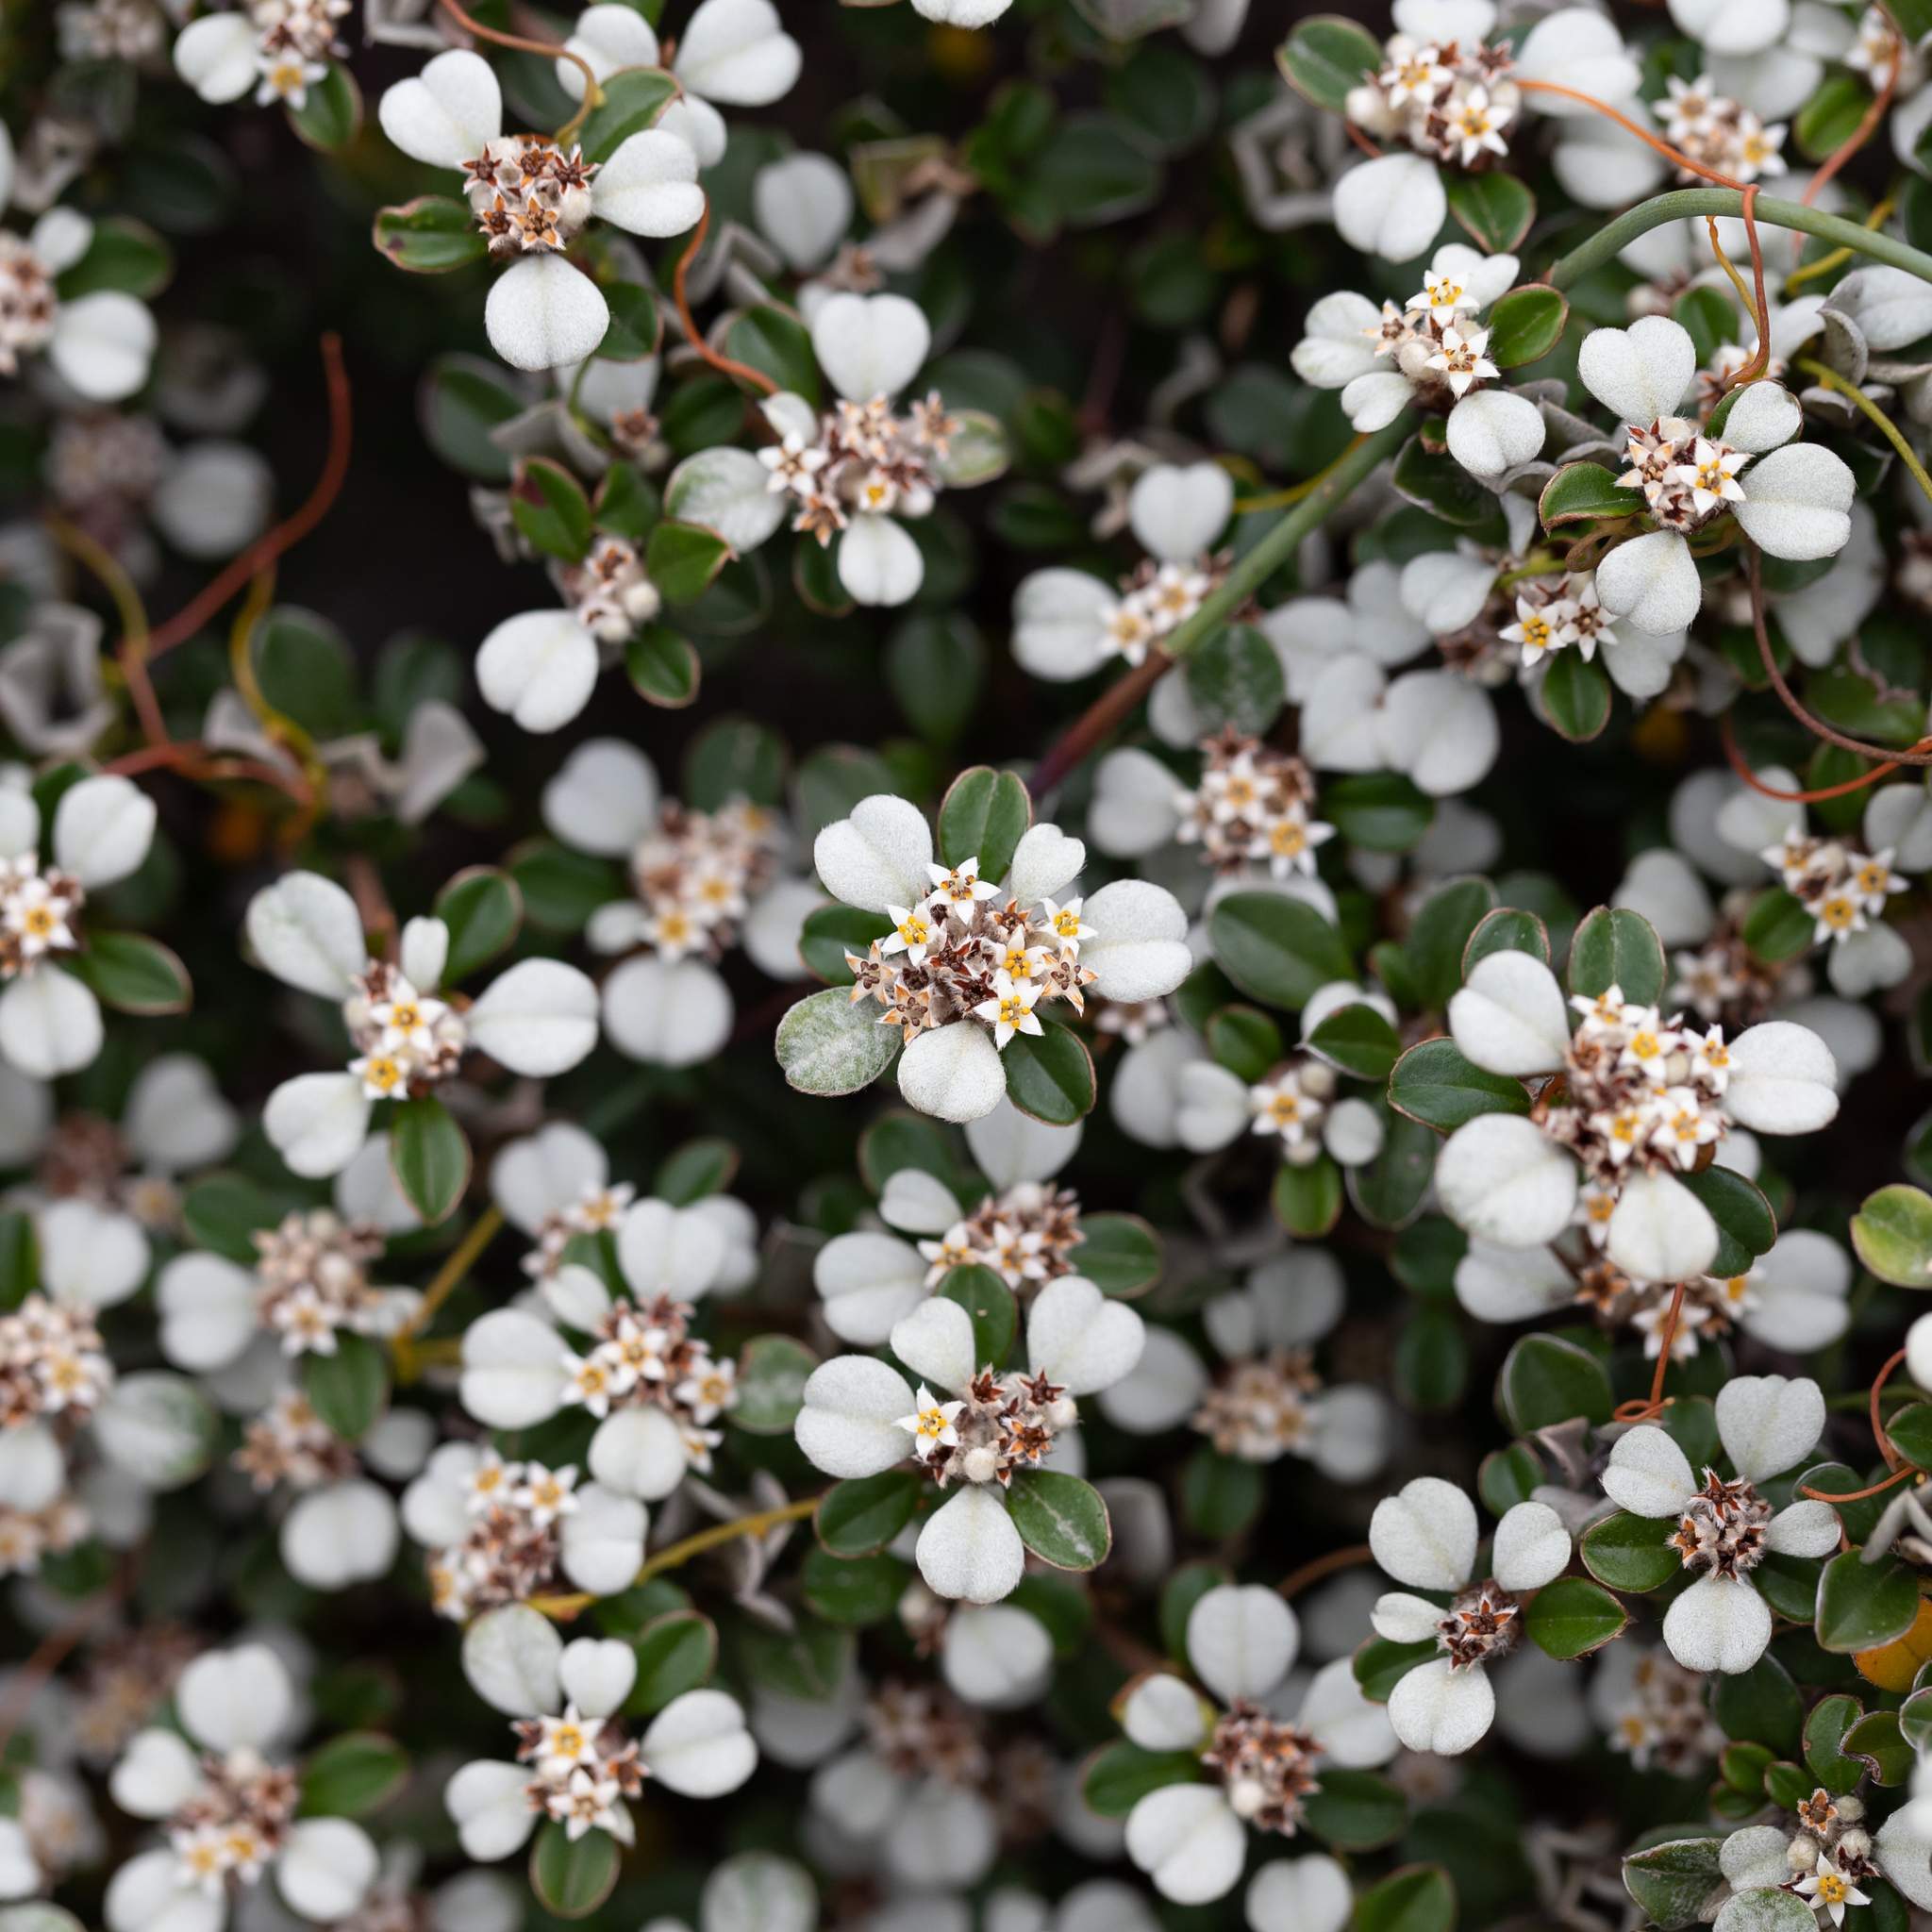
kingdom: Plantae
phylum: Tracheophyta
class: Magnoliopsida
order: Rosales
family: Rhamnaceae
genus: Cryptandra
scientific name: Cryptandra leucophracta
